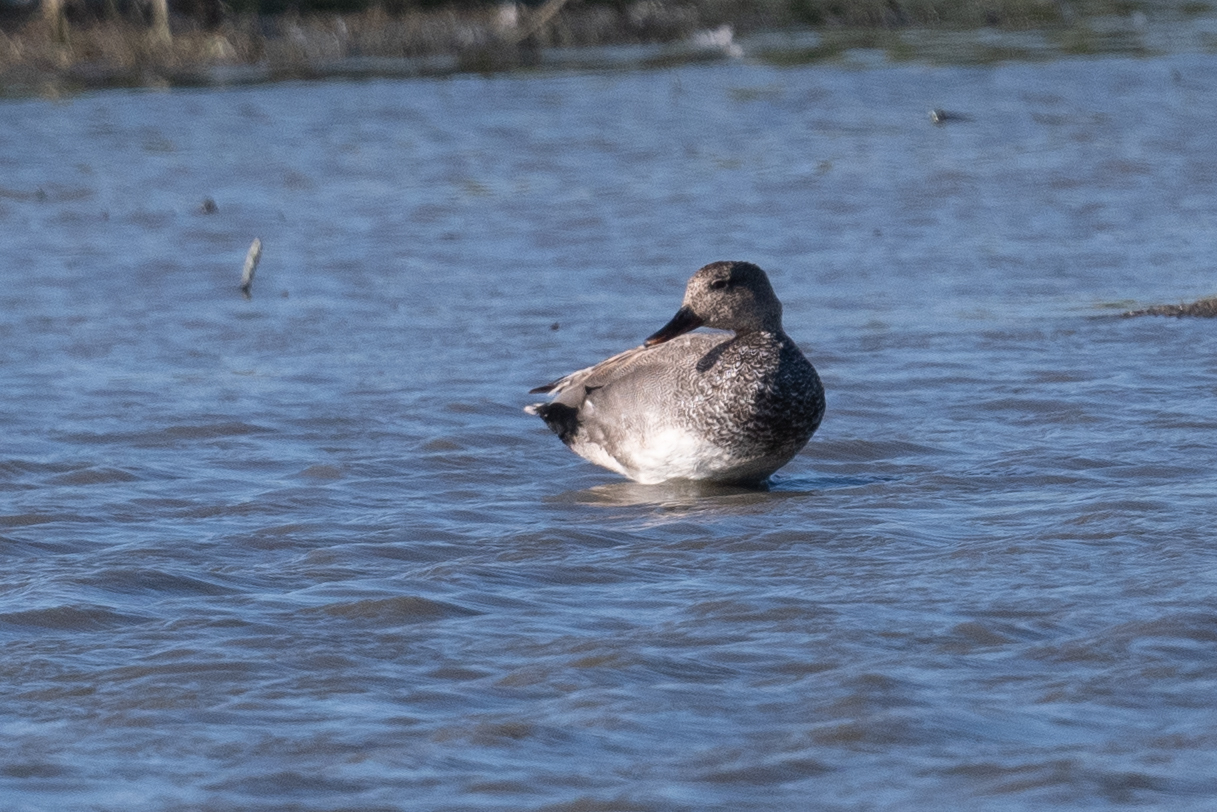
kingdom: Animalia
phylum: Chordata
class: Aves
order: Anseriformes
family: Anatidae
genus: Mareca
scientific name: Mareca strepera
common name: Gadwall
